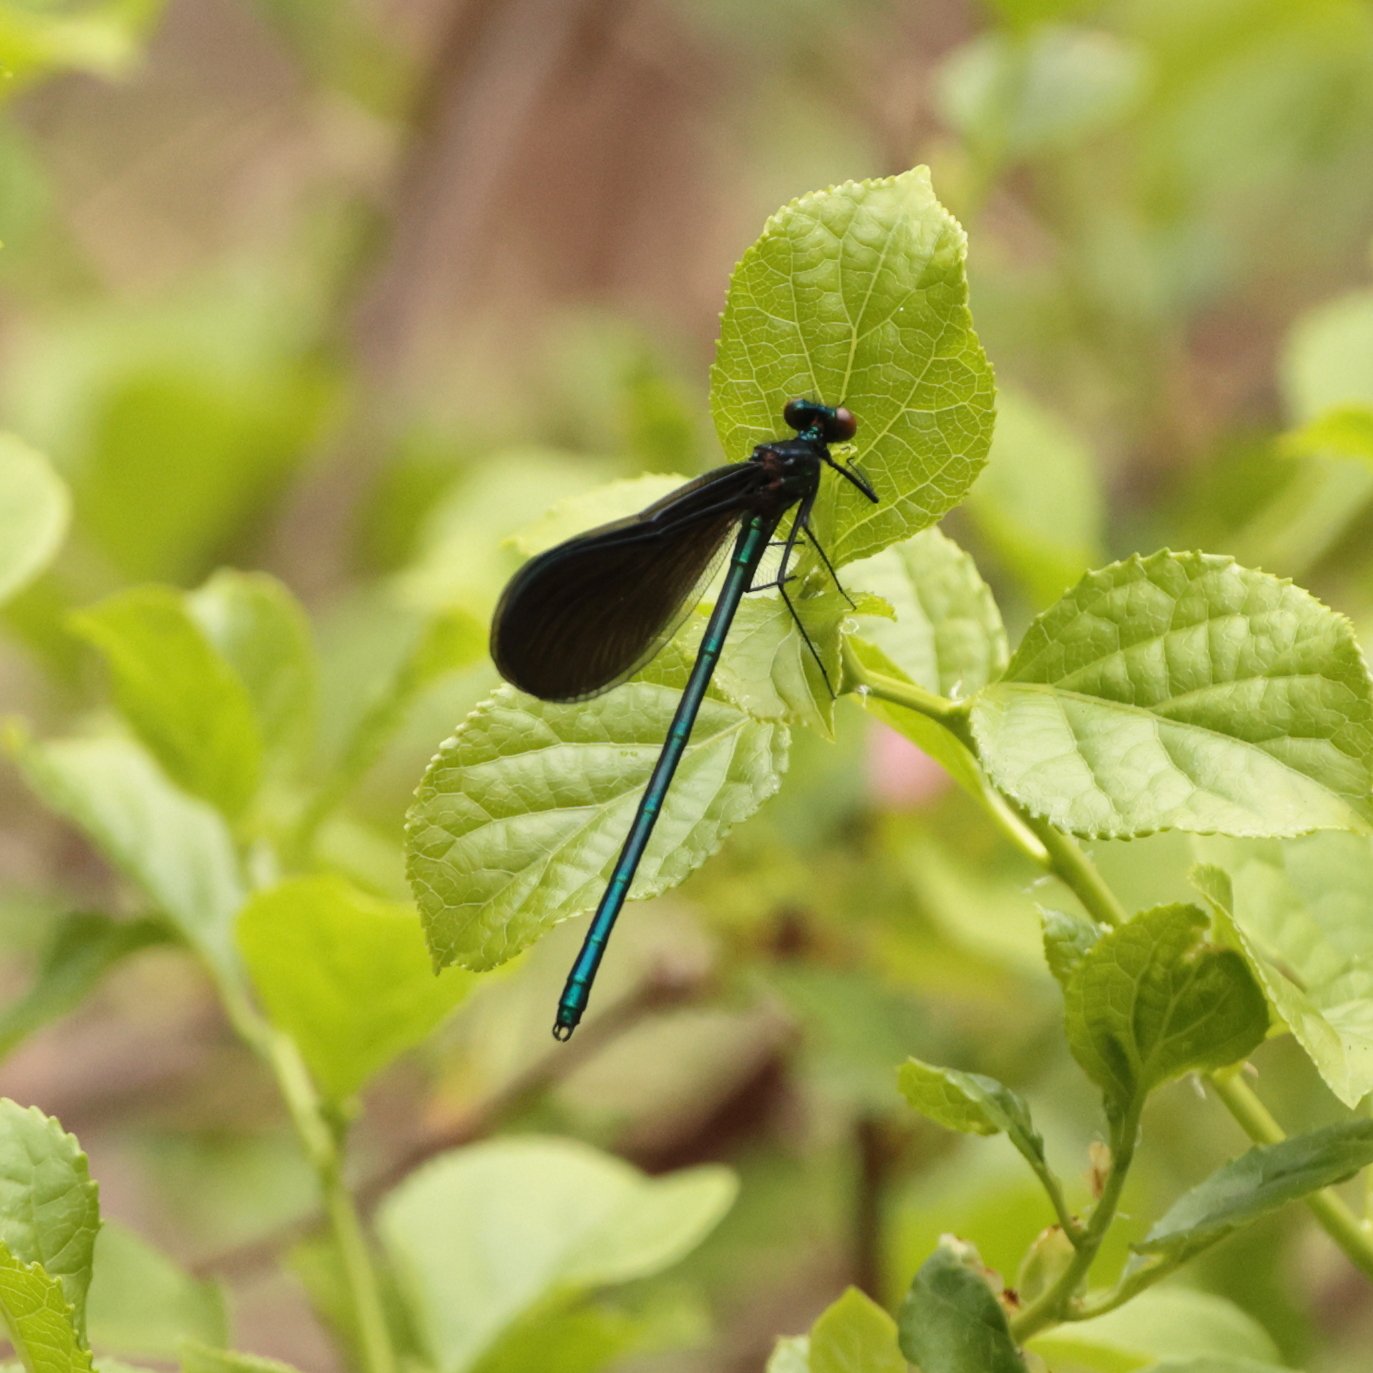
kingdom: Animalia
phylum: Arthropoda
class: Insecta
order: Odonata
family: Calopterygidae
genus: Calopteryx
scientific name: Calopteryx maculata
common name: Ebony jewelwing
